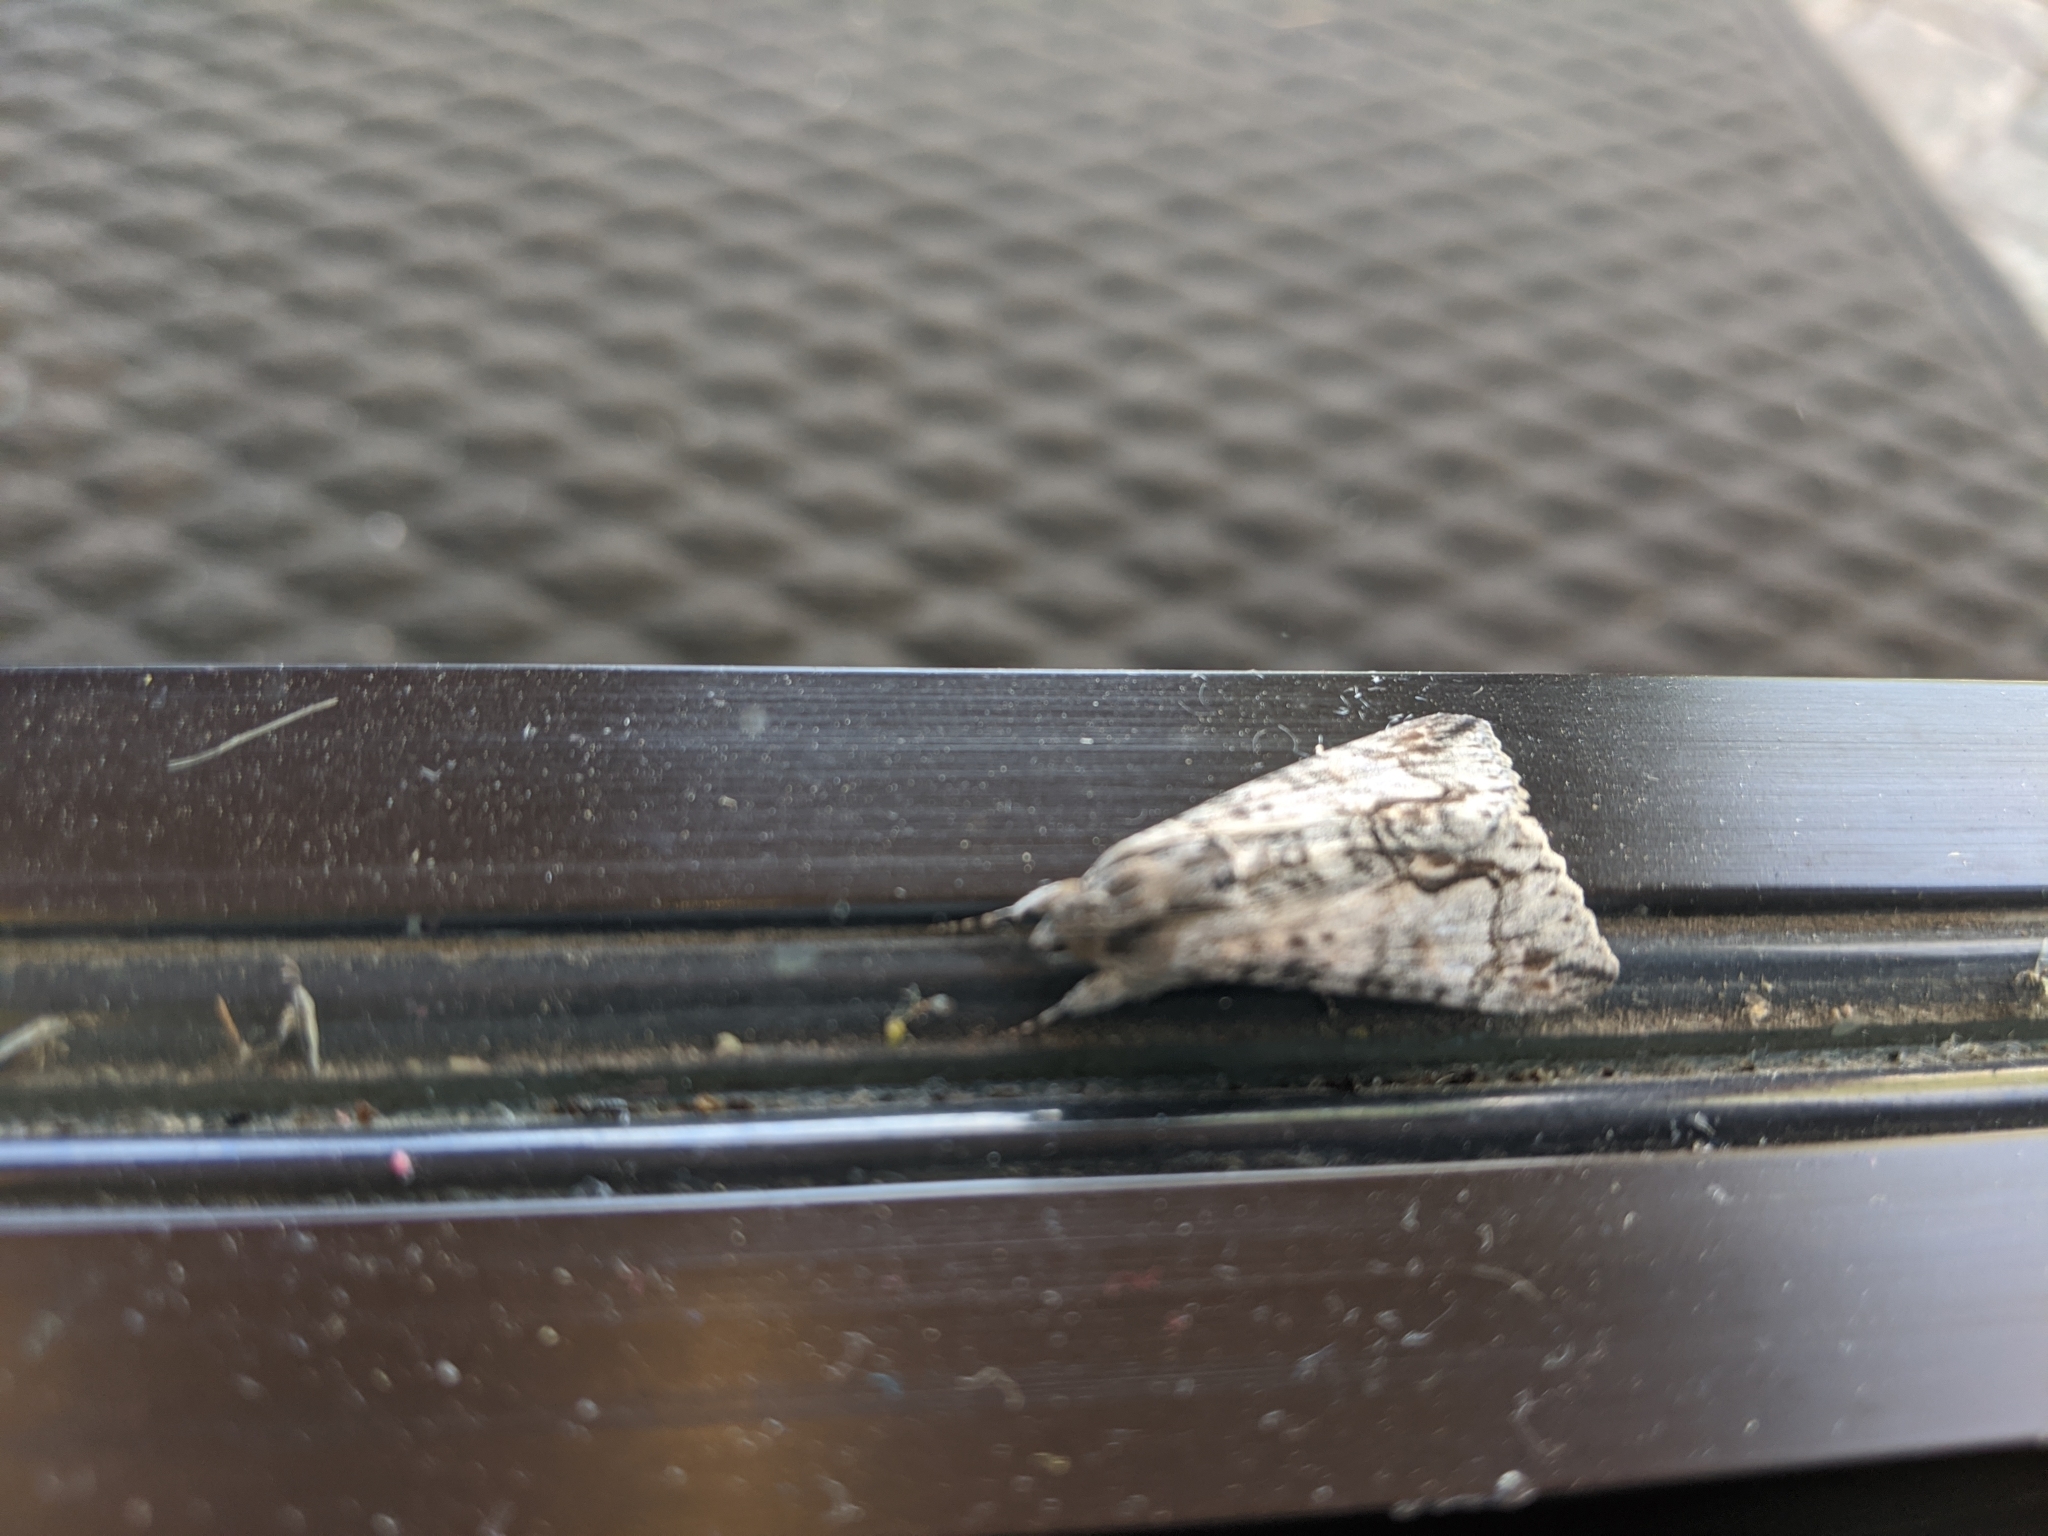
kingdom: Animalia
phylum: Arthropoda
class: Insecta
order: Lepidoptera
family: Erebidae
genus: Melipotis
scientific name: Melipotis acontioides
